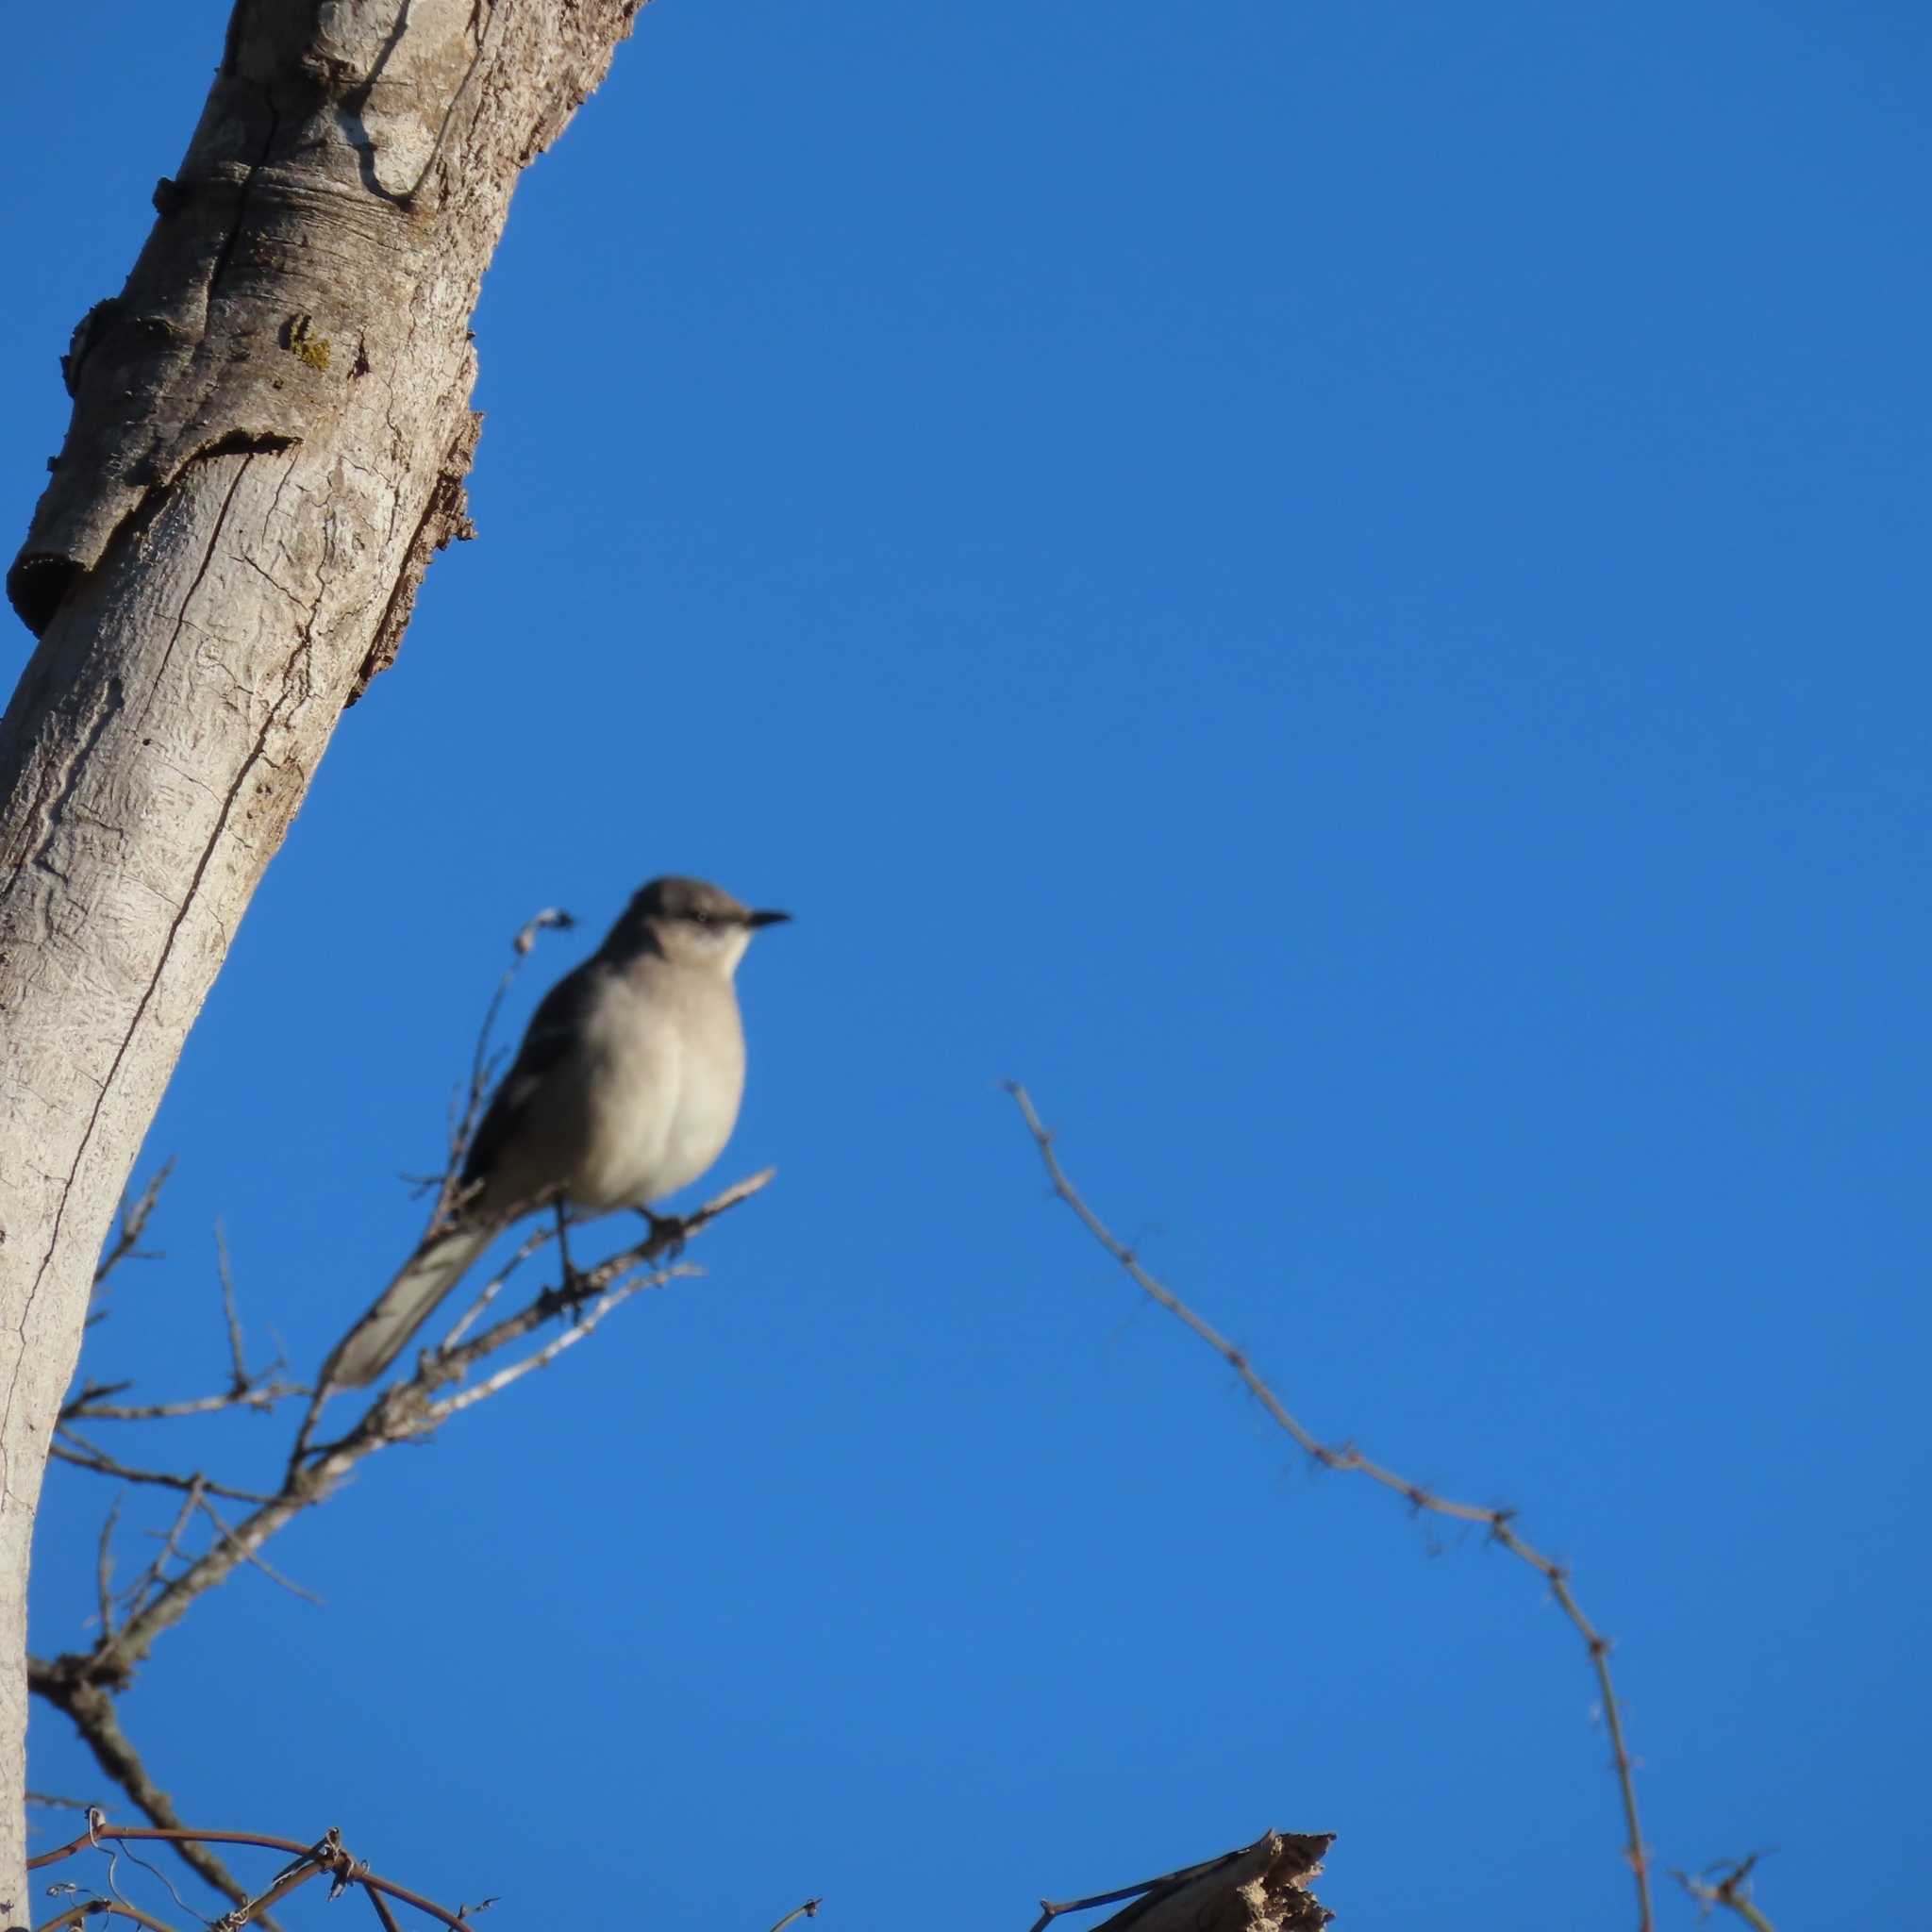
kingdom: Animalia
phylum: Chordata
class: Aves
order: Passeriformes
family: Mimidae
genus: Mimus
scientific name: Mimus polyglottos
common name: Northern mockingbird
